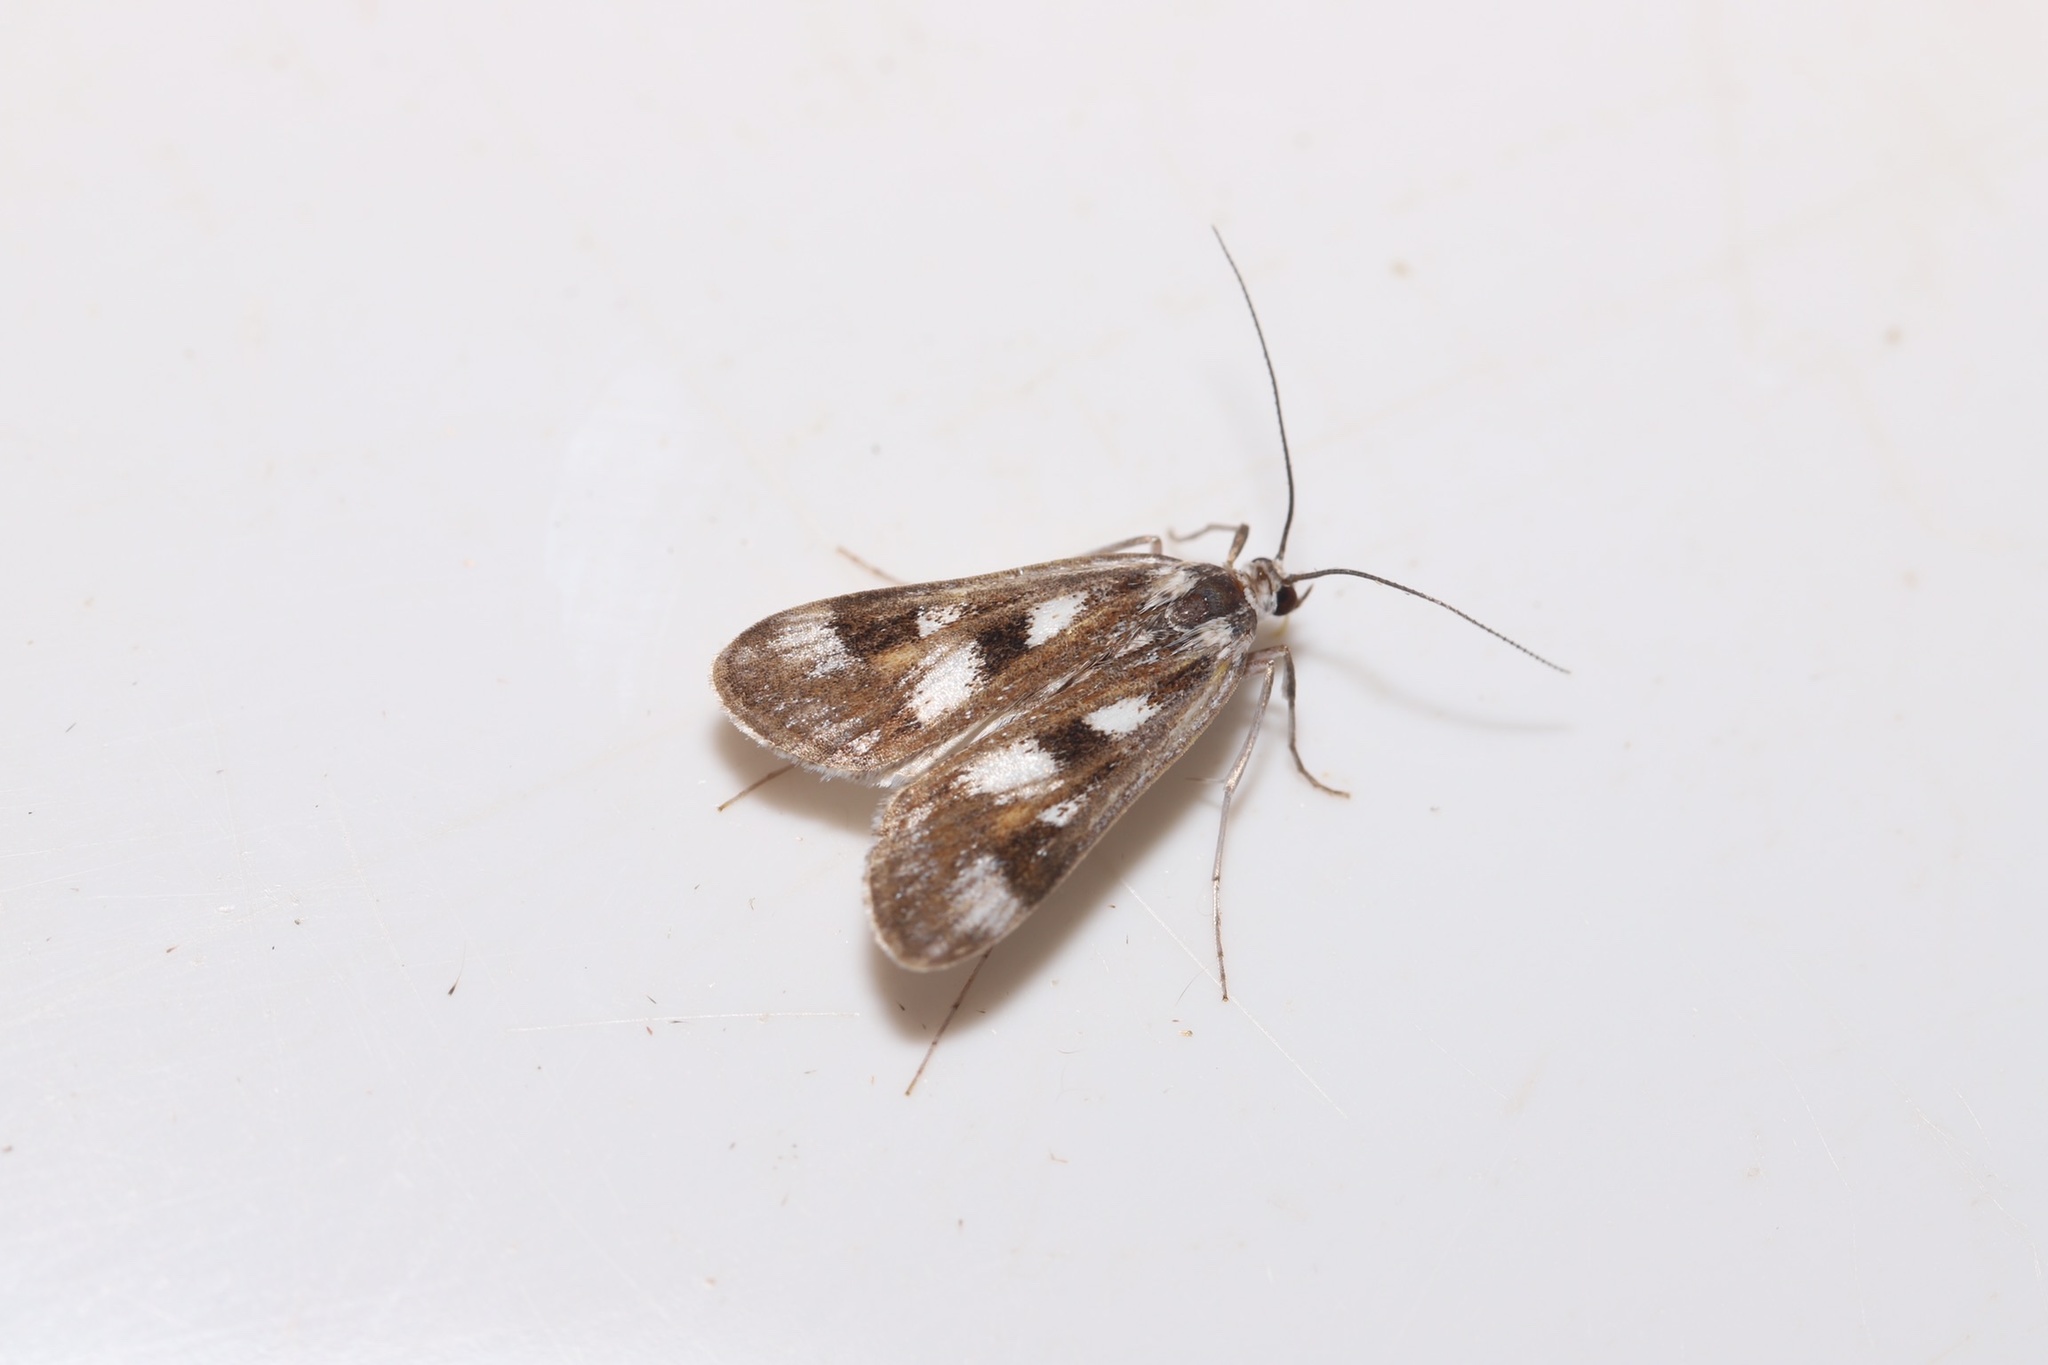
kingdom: Animalia
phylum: Arthropoda
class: Insecta
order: Lepidoptera
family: Crambidae
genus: Parapoynx
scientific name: Parapoynx maculalis
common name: Polymorphic pondweed moth
